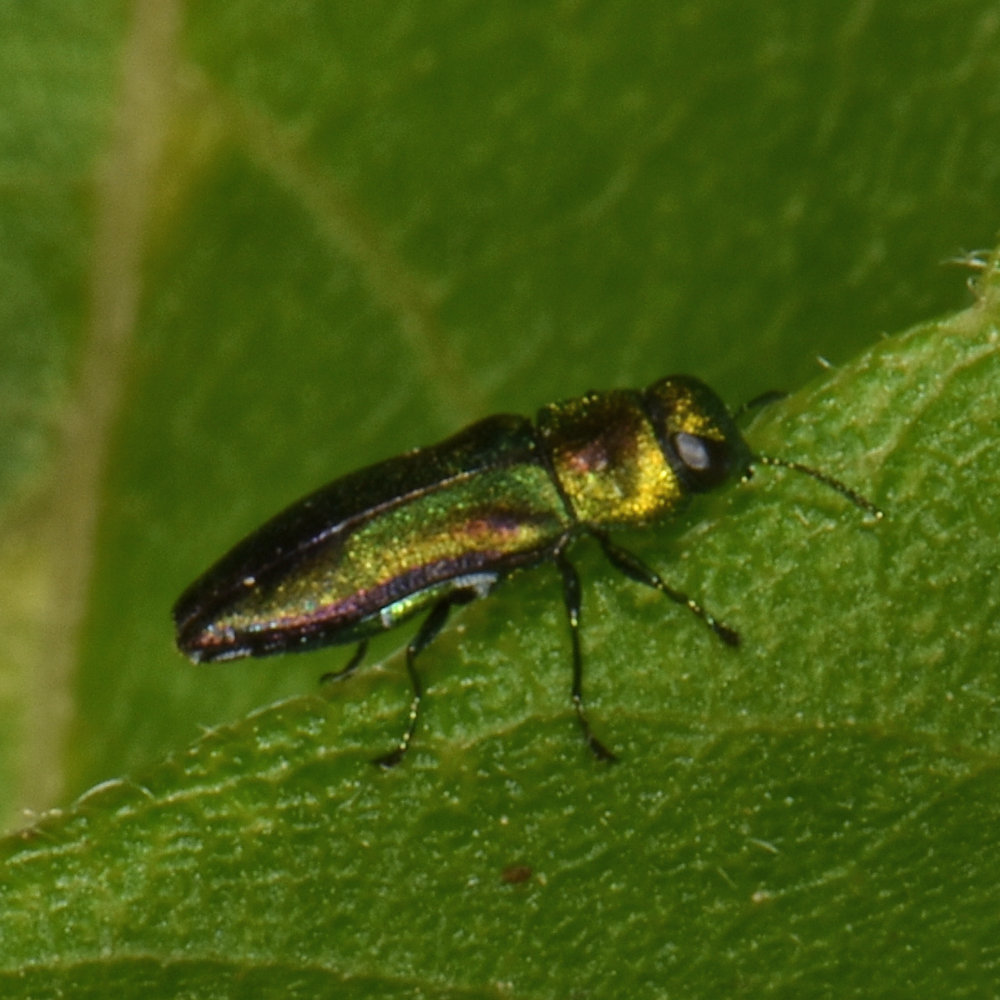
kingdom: Animalia
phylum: Arthropoda
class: Insecta
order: Coleoptera
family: Buprestidae
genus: Anthaxia
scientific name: Anthaxia quercata
